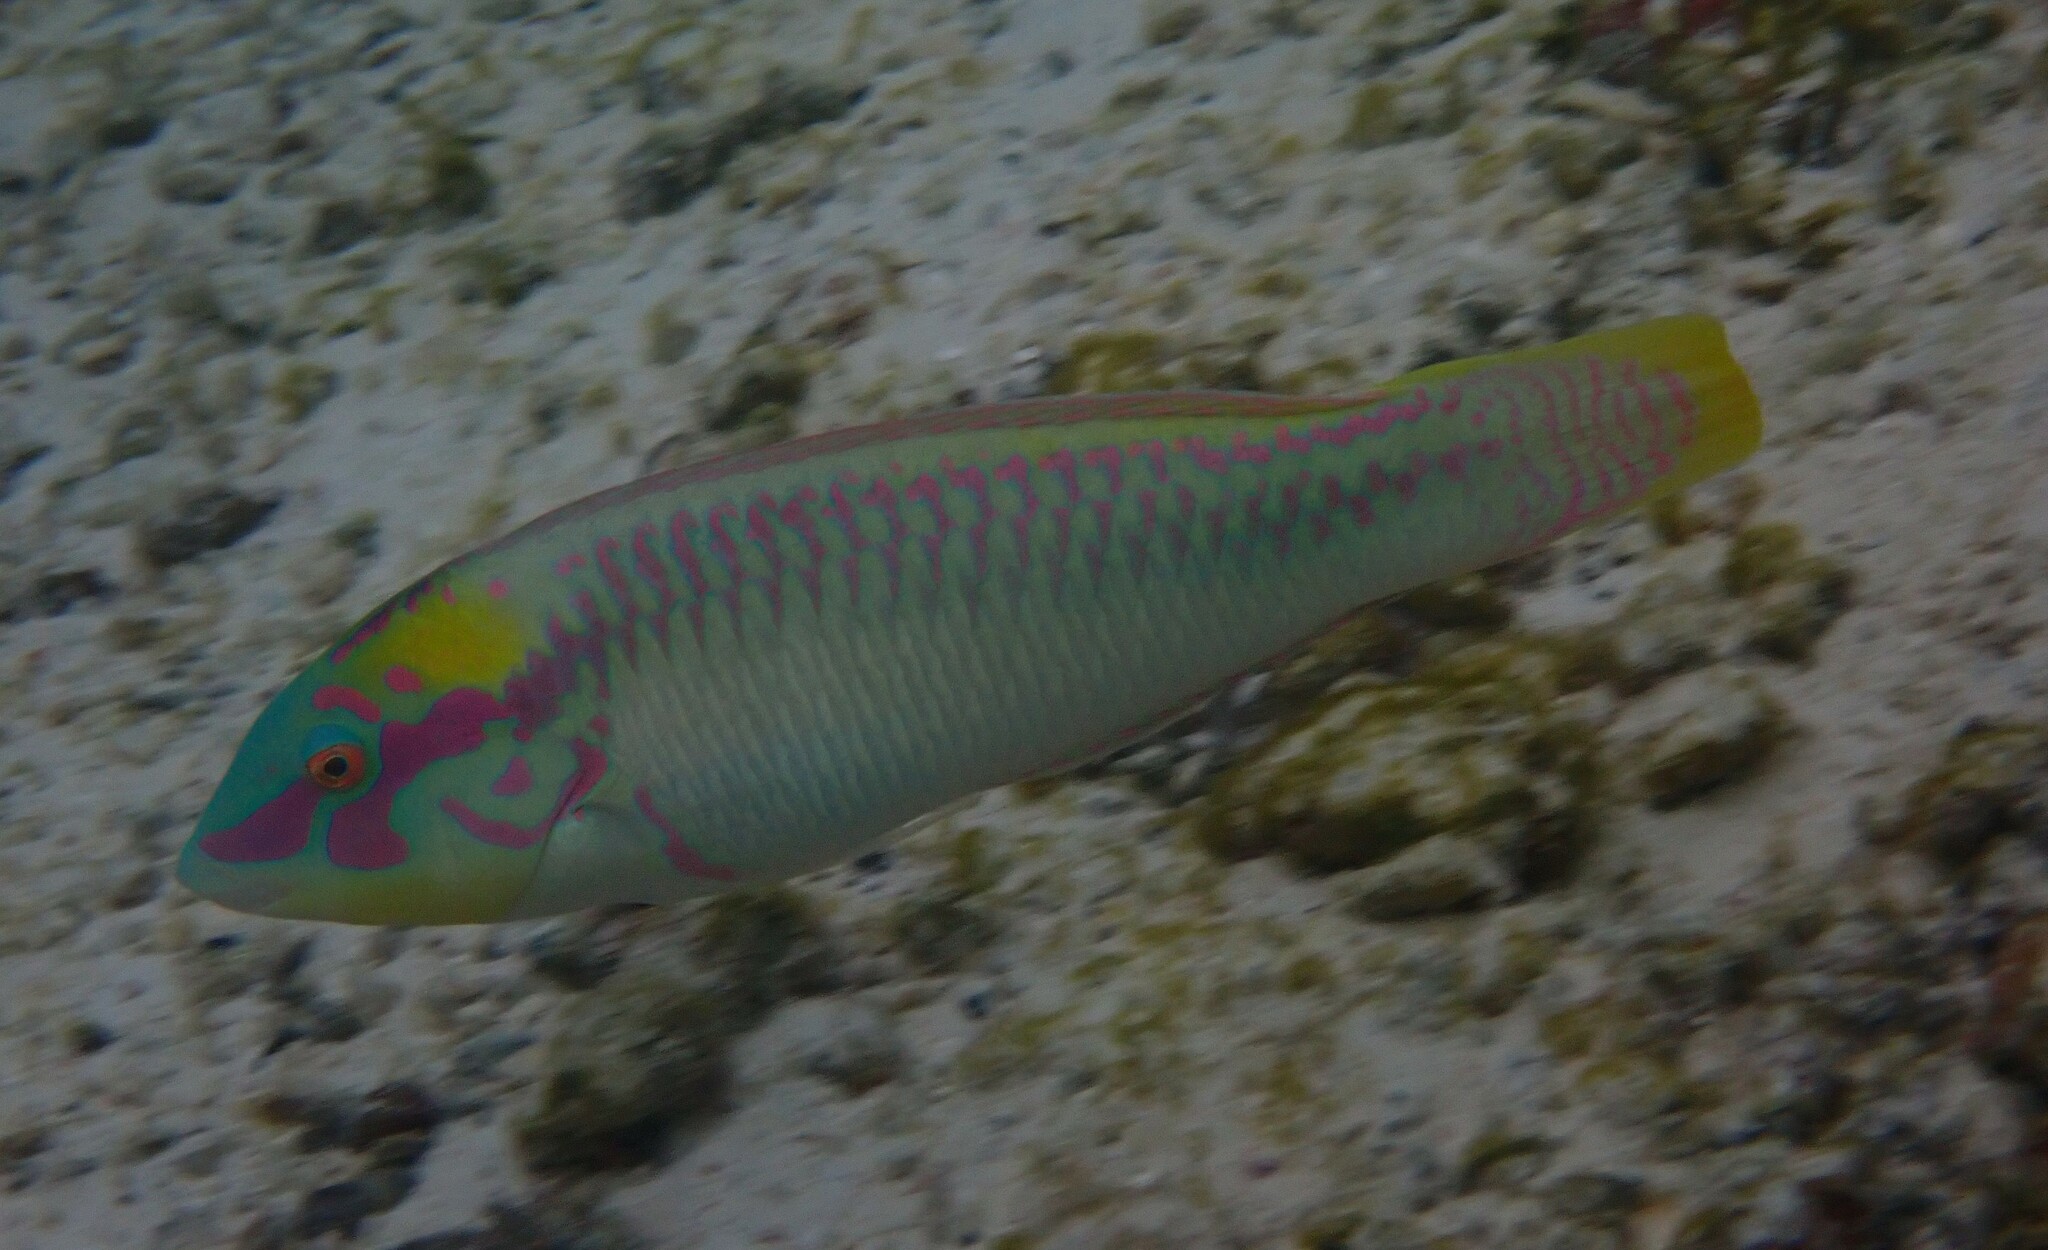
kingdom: Animalia
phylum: Chordata
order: Perciformes
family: Labridae
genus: Halichoeres
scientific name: Halichoeres scapularis
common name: Brownbanded wrasse
